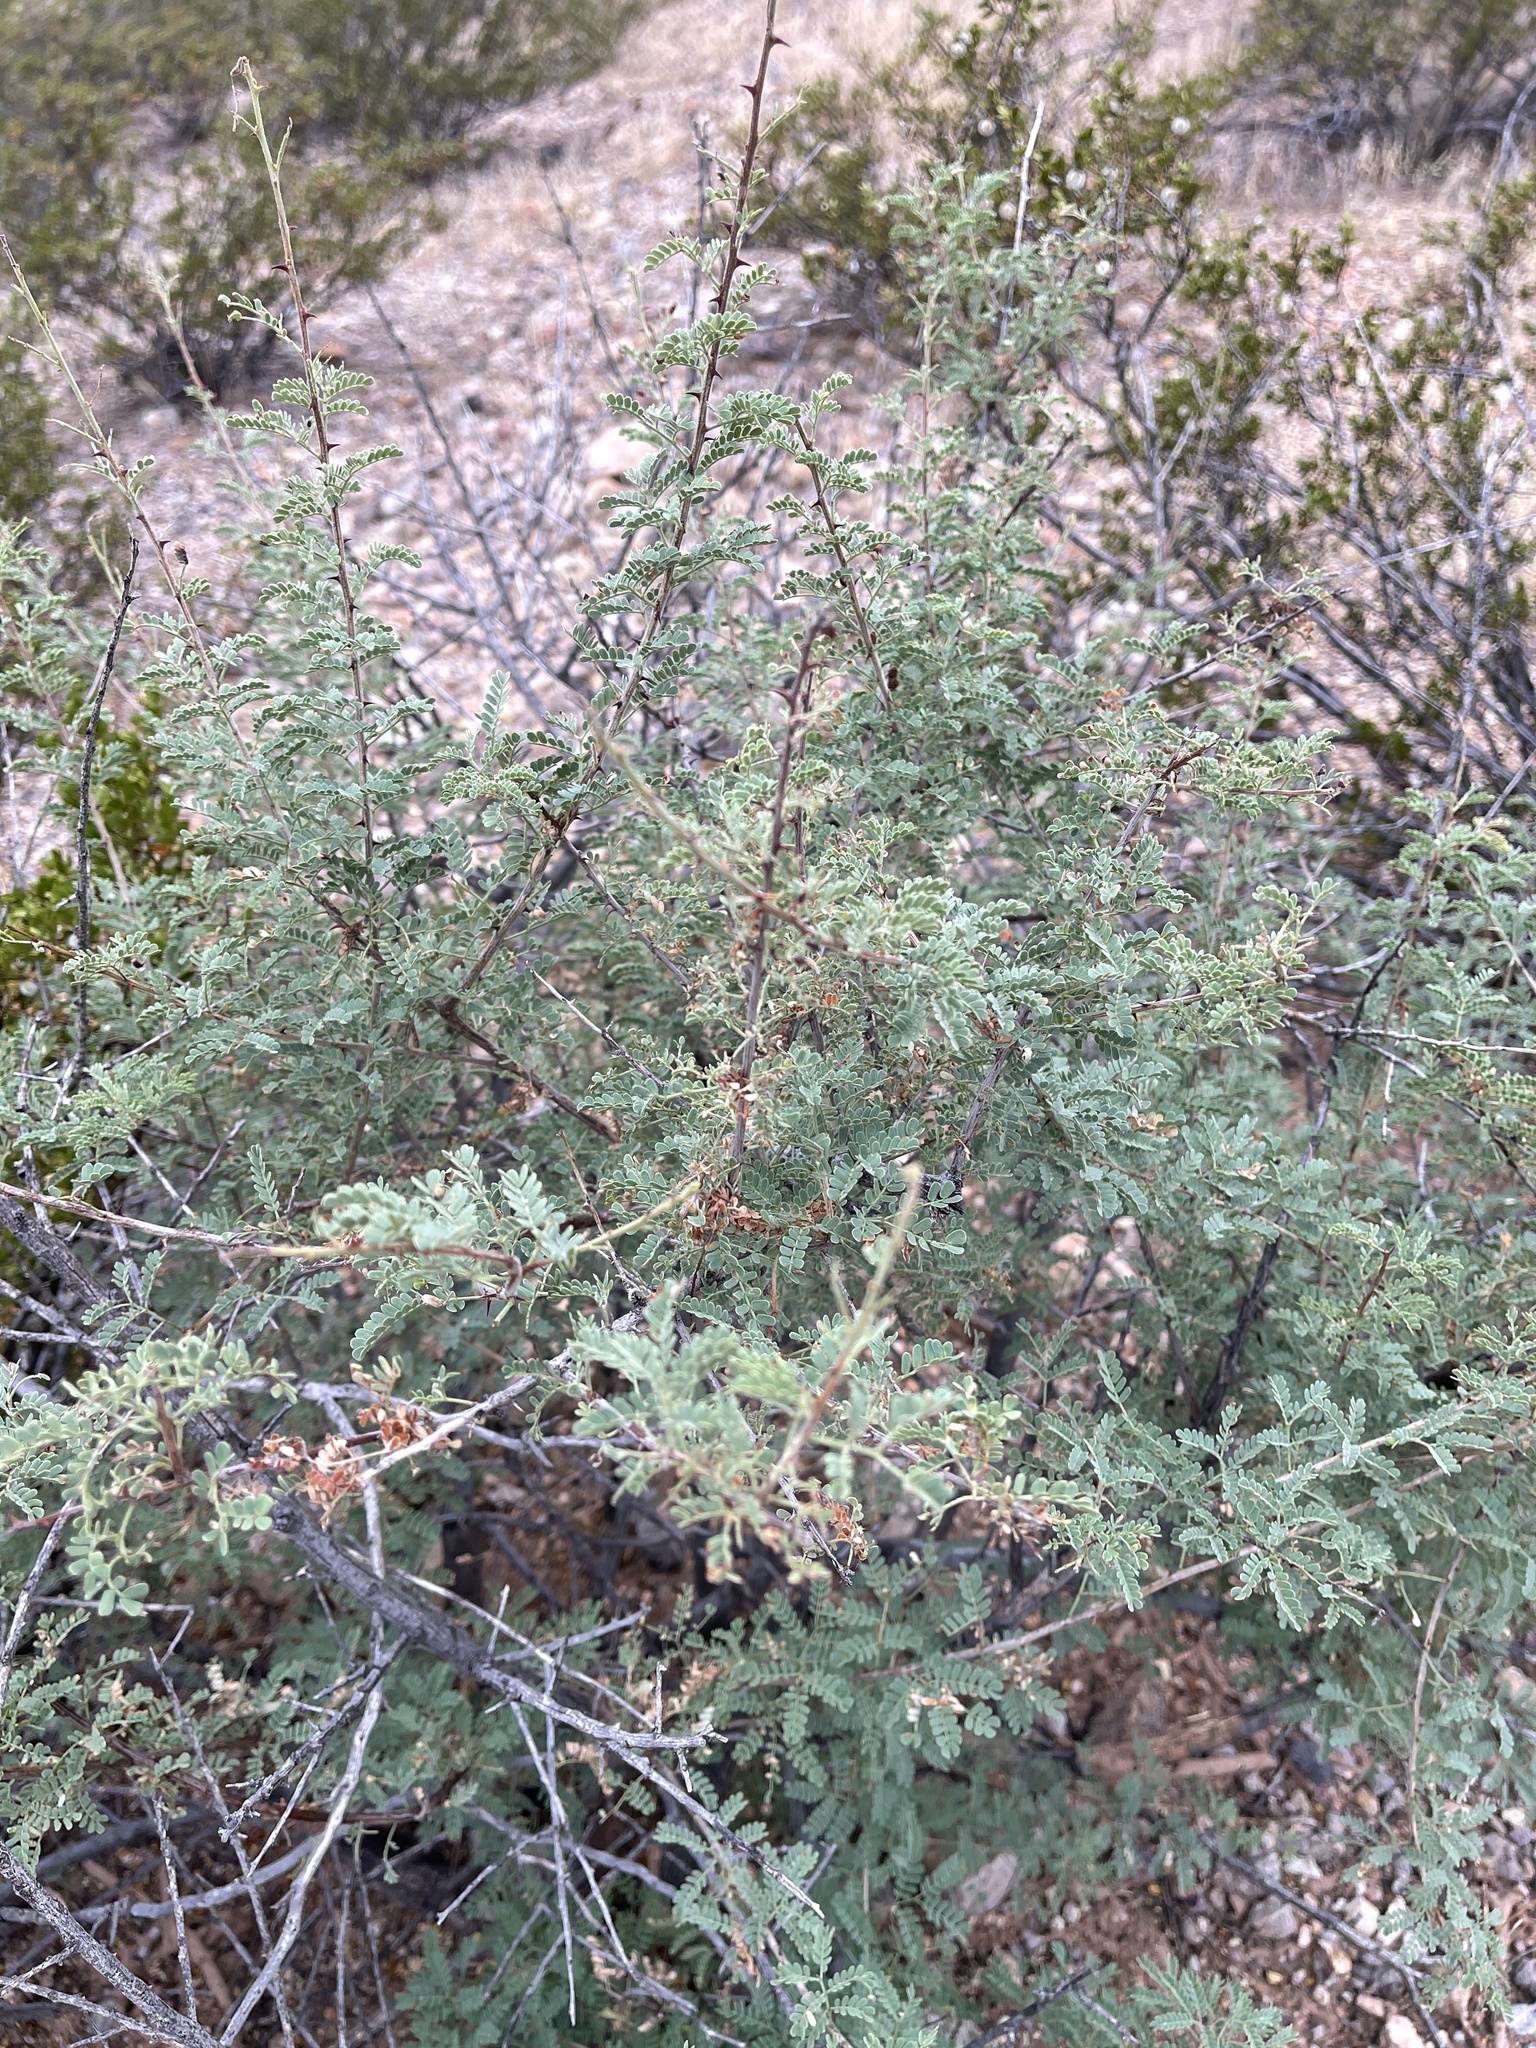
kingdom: Plantae
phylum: Tracheophyta
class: Magnoliopsida
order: Fabales
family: Fabaceae
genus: Mimosa
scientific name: Mimosa aculeaticarpa
